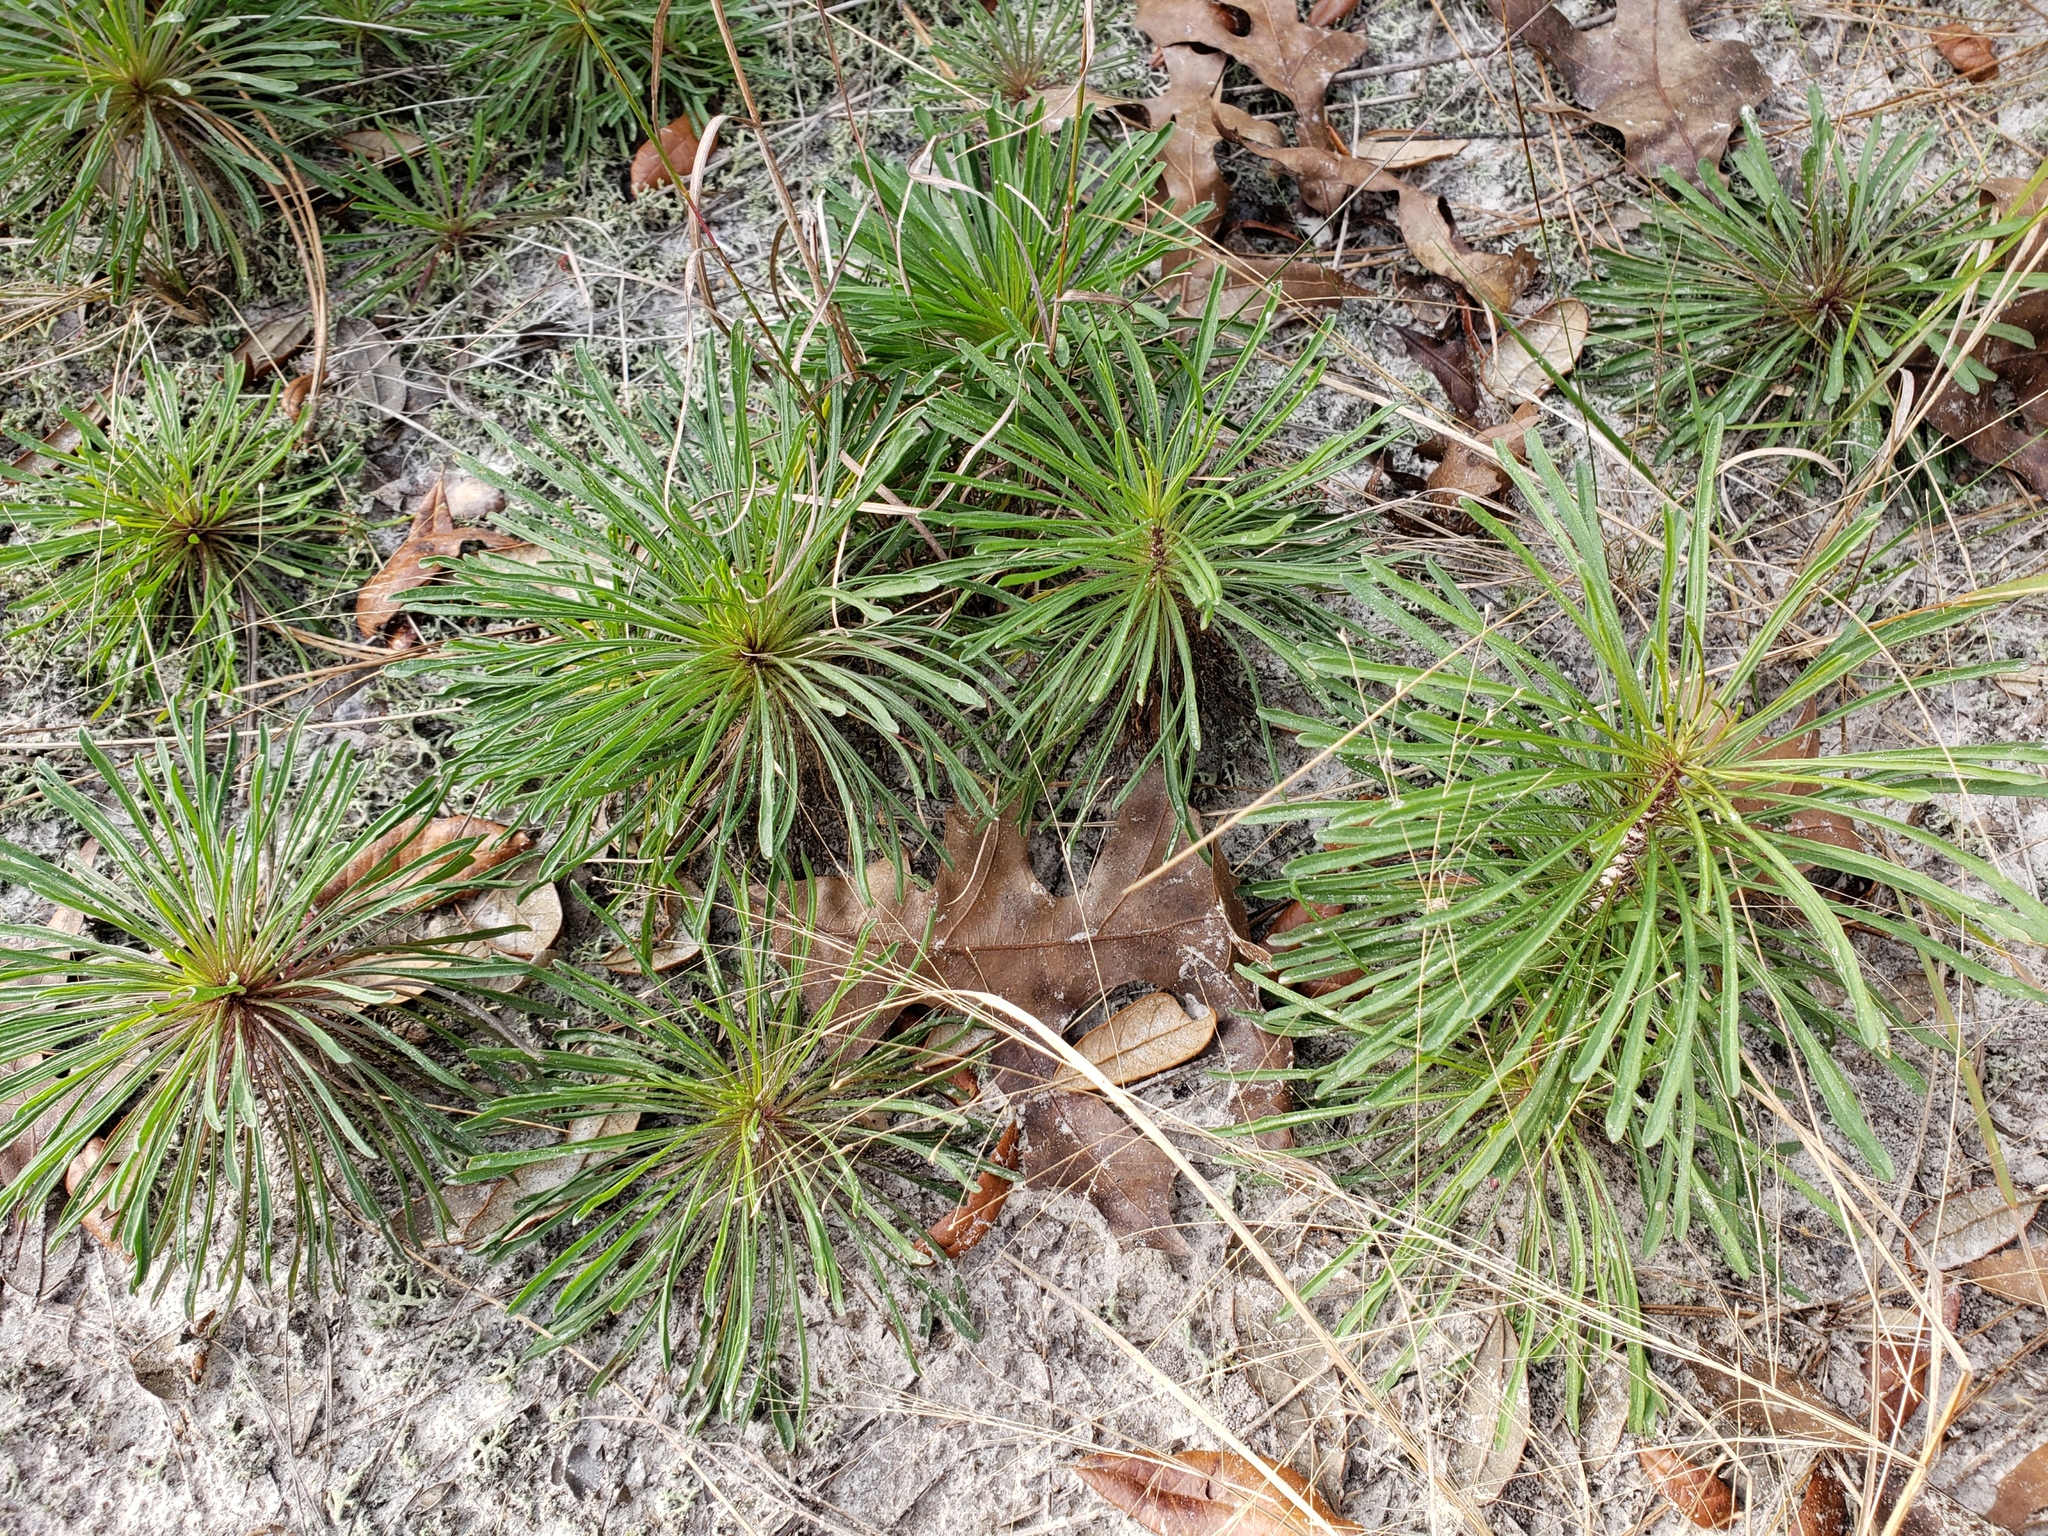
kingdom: Plantae
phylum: Tracheophyta
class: Magnoliopsida
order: Asterales
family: Asteraceae
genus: Balduina
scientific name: Balduina angustifolia
